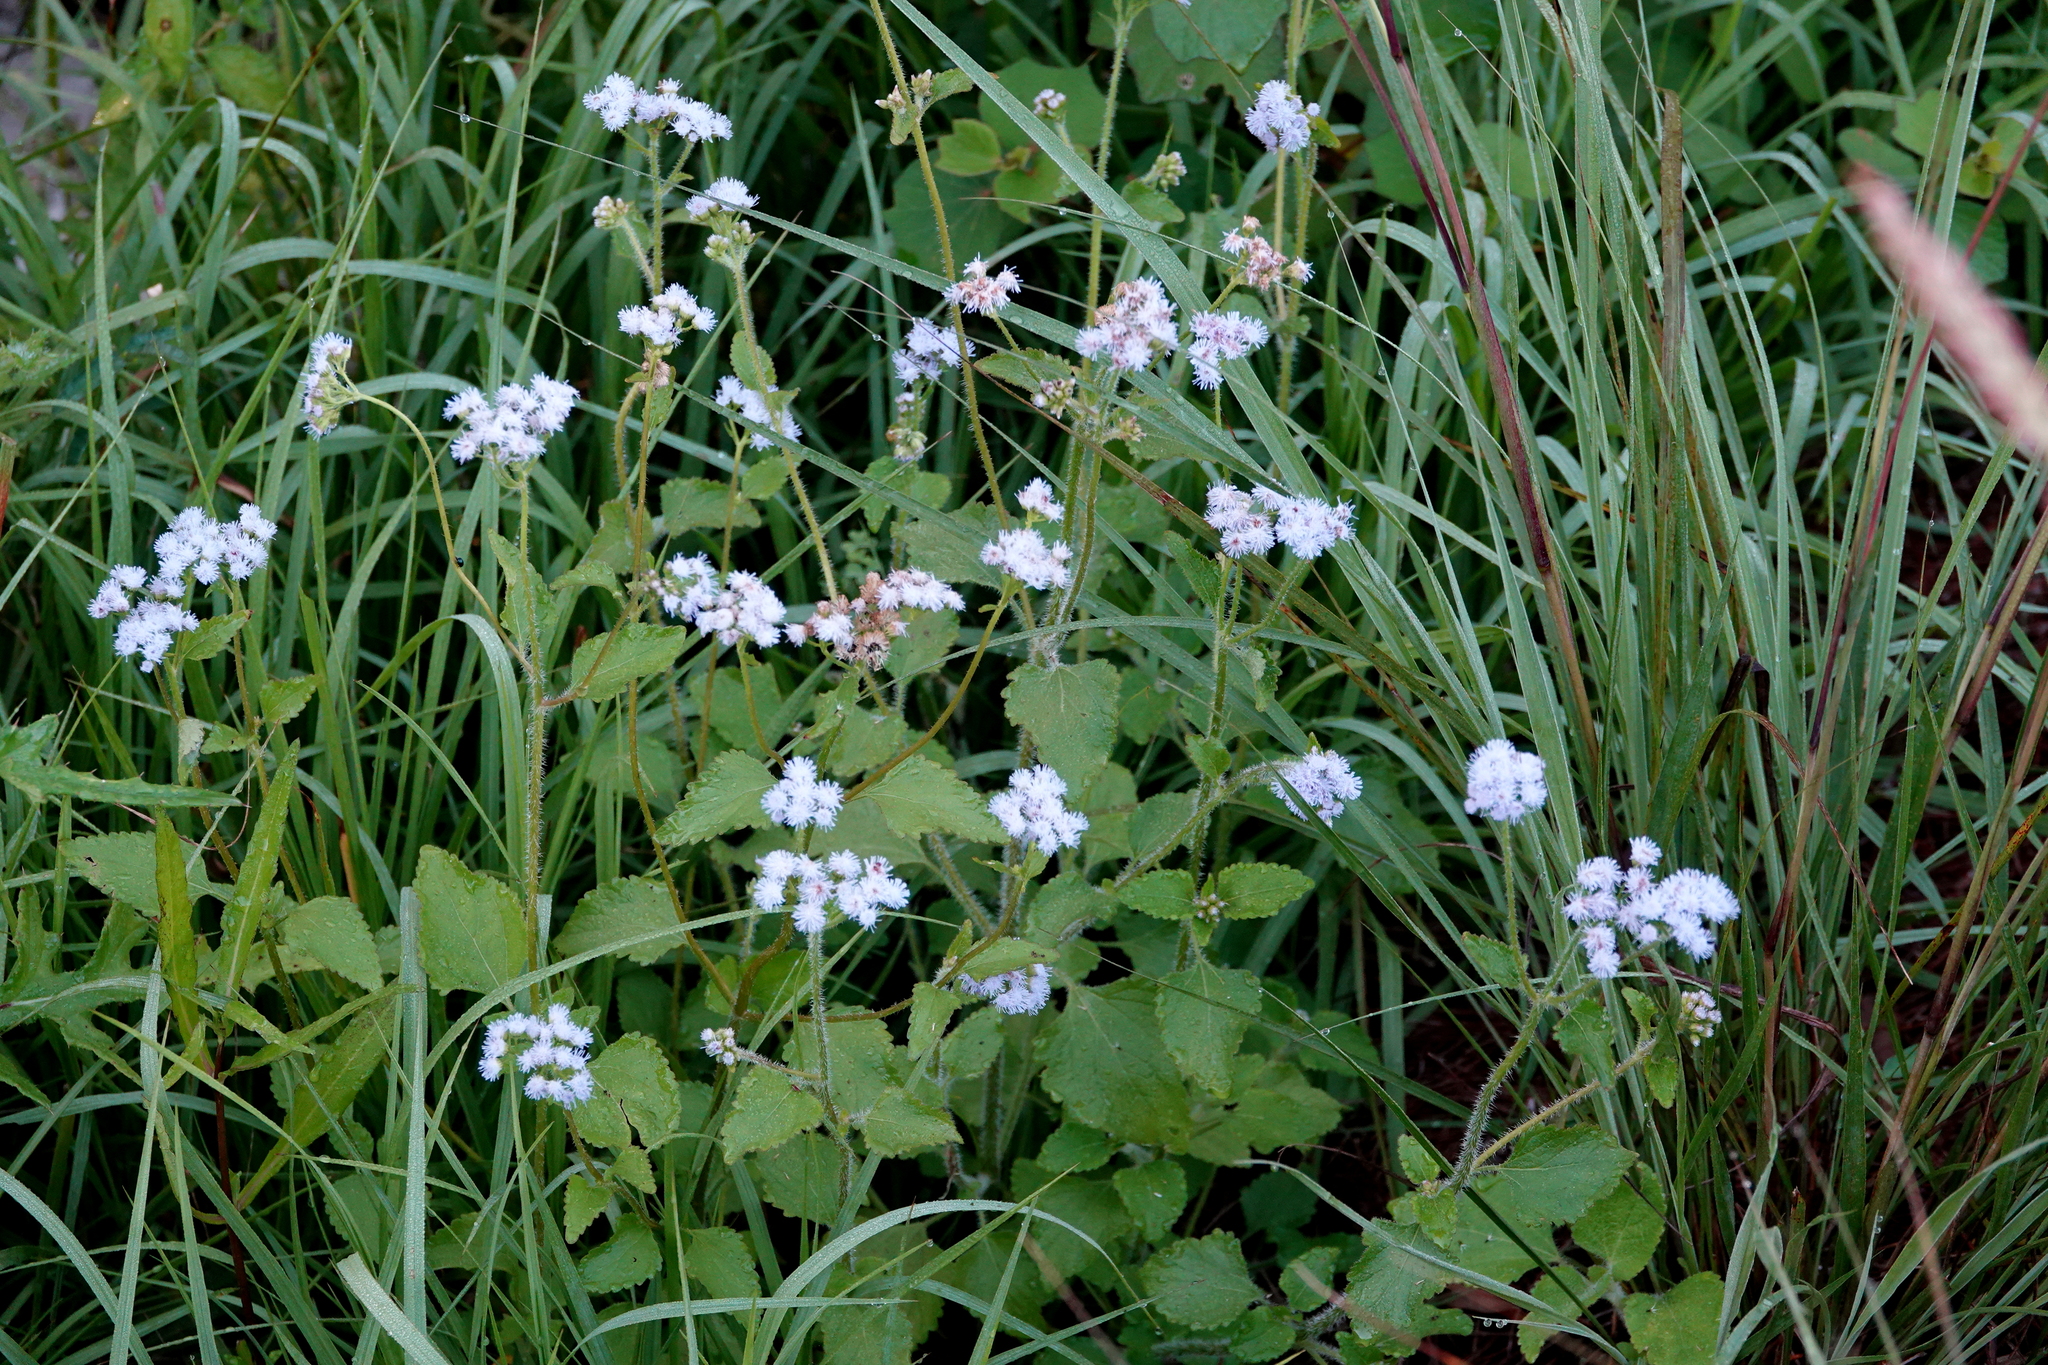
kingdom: Plantae
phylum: Tracheophyta
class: Magnoliopsida
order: Asterales
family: Asteraceae
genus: Ageratum
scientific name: Ageratum houstonianum
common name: Bluemink
